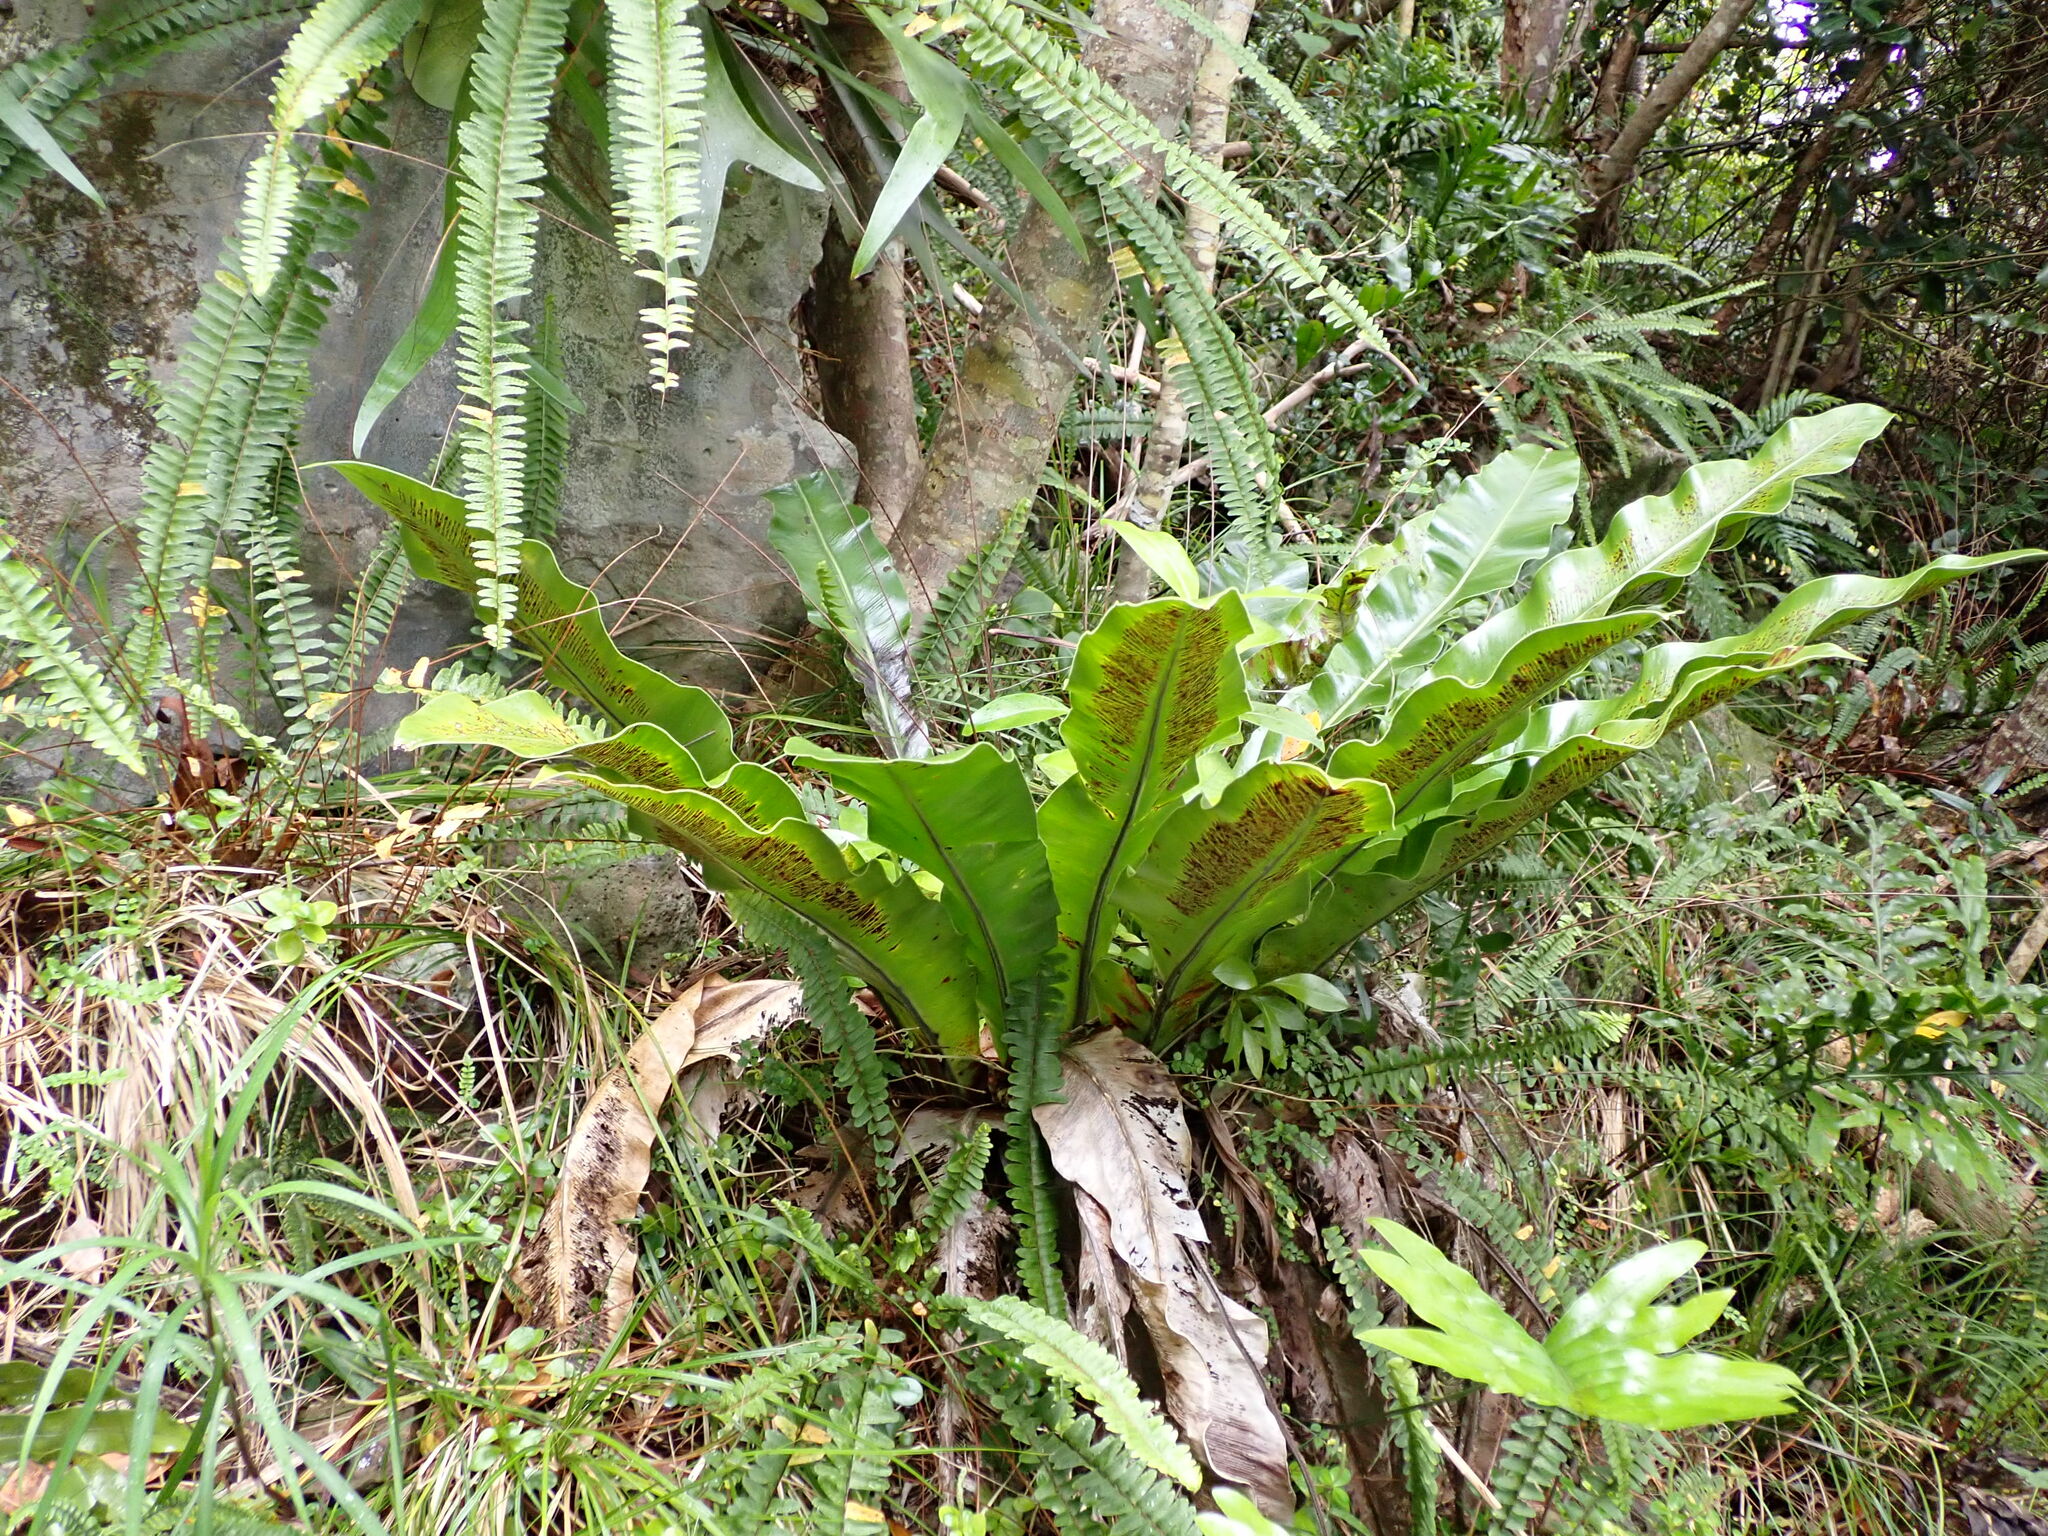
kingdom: Plantae
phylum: Tracheophyta
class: Polypodiopsida
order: Polypodiales
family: Aspleniaceae
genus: Asplenium
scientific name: Asplenium goudeyi
